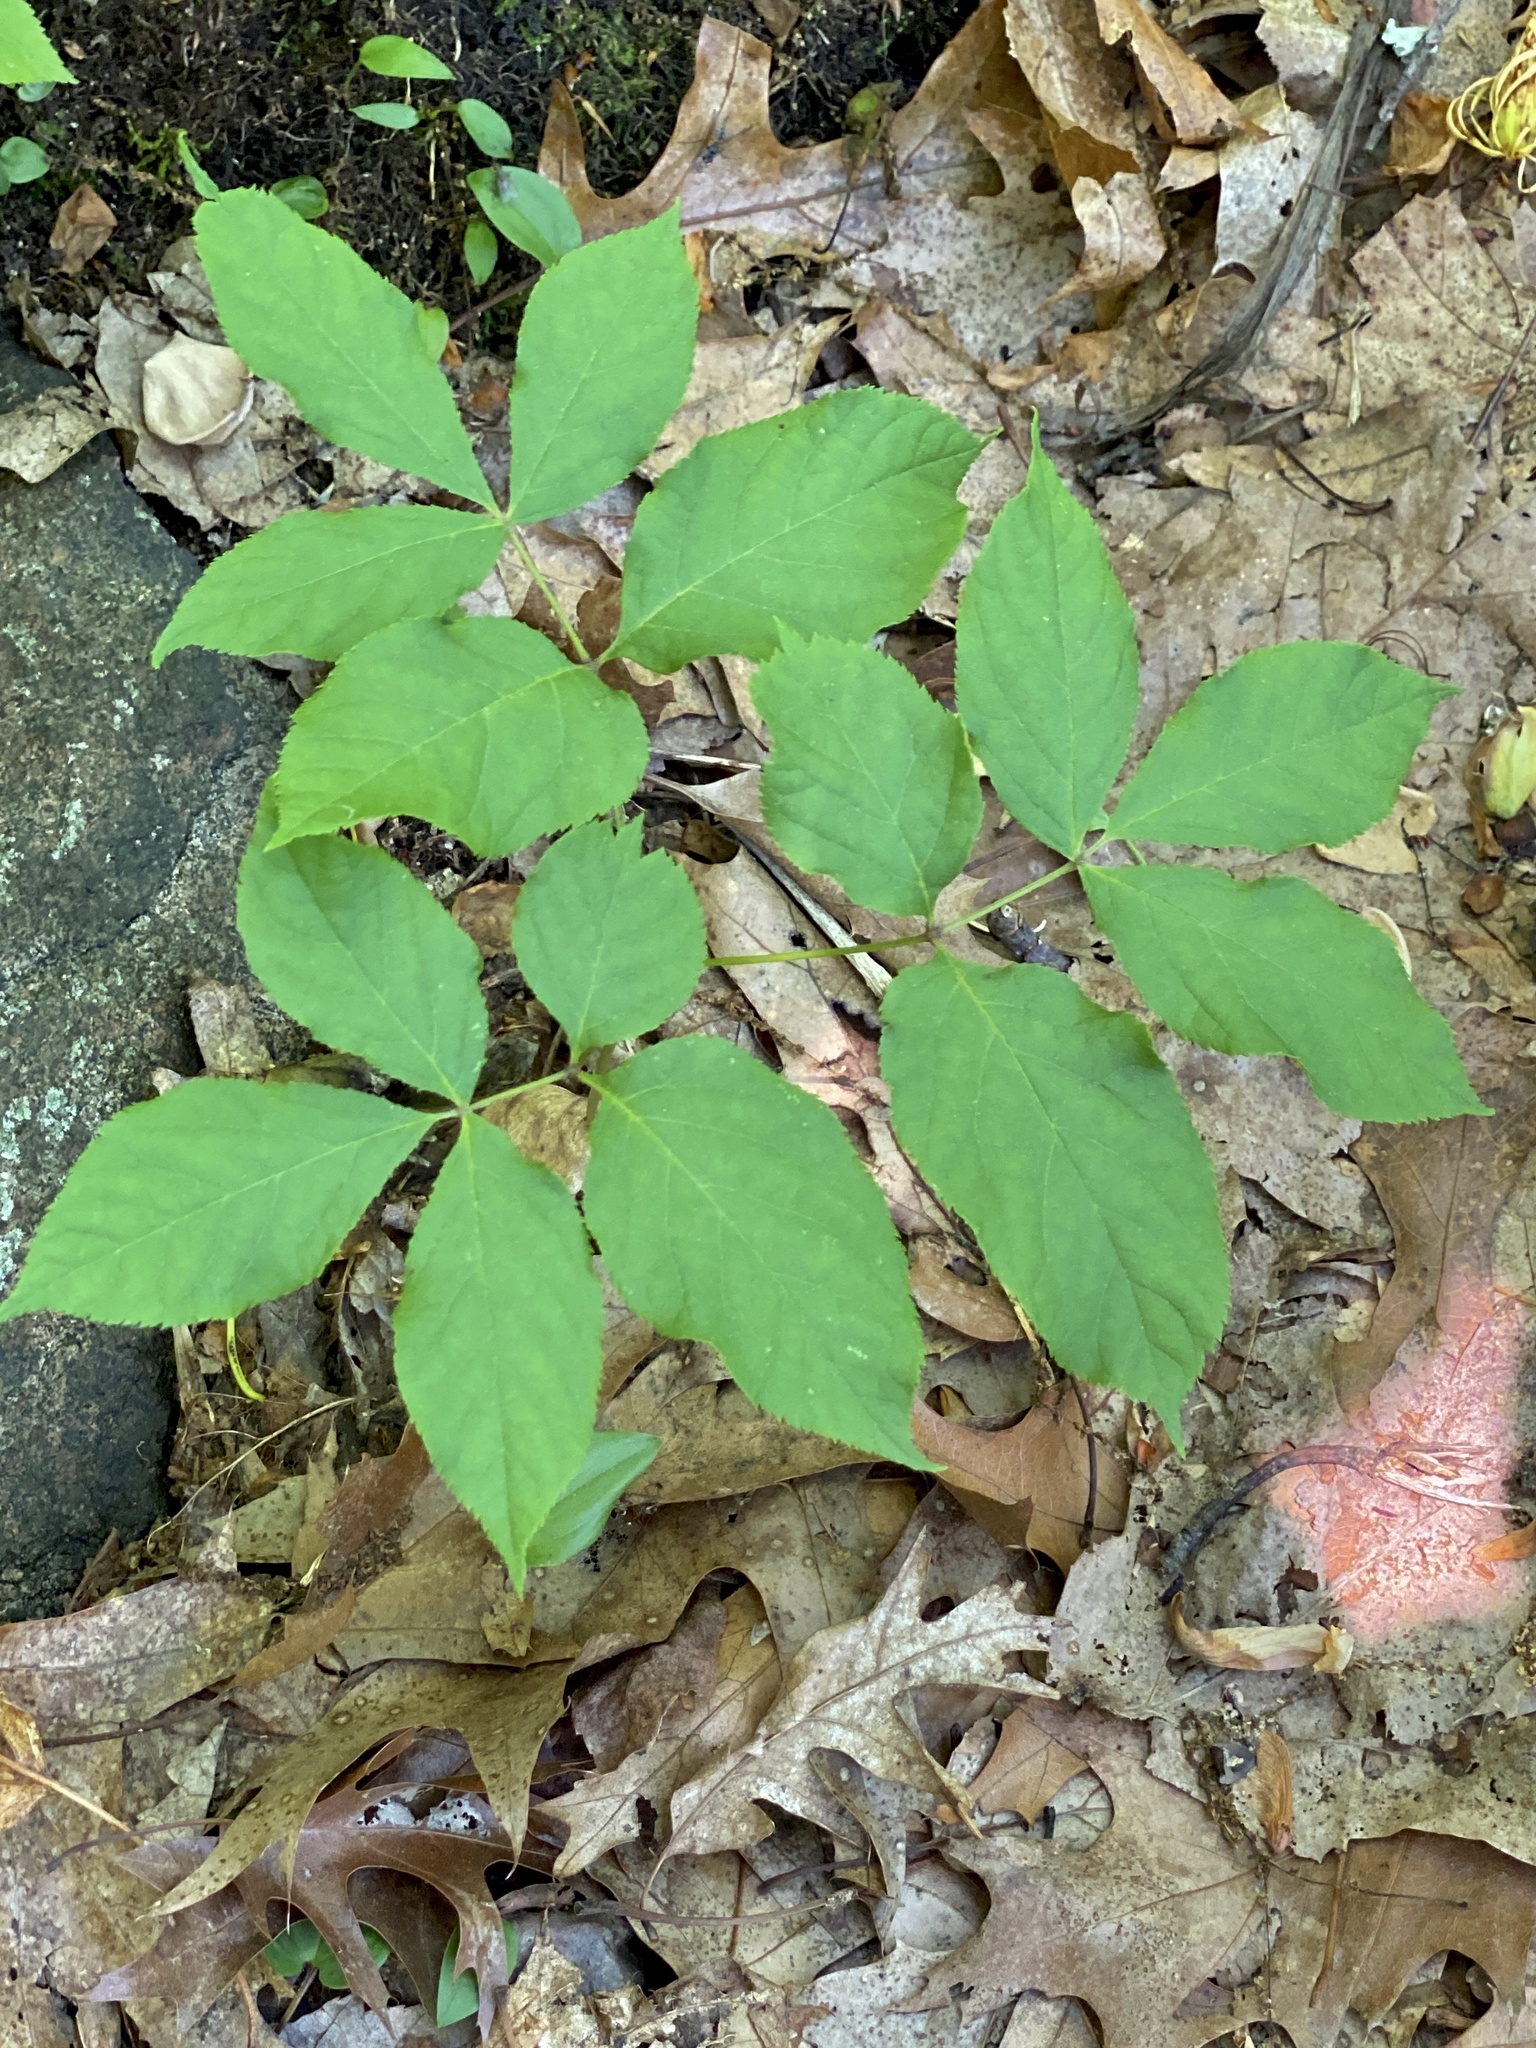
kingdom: Plantae
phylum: Tracheophyta
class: Magnoliopsida
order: Apiales
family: Araliaceae
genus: Aralia
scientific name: Aralia nudicaulis
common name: Wild sarsaparilla
